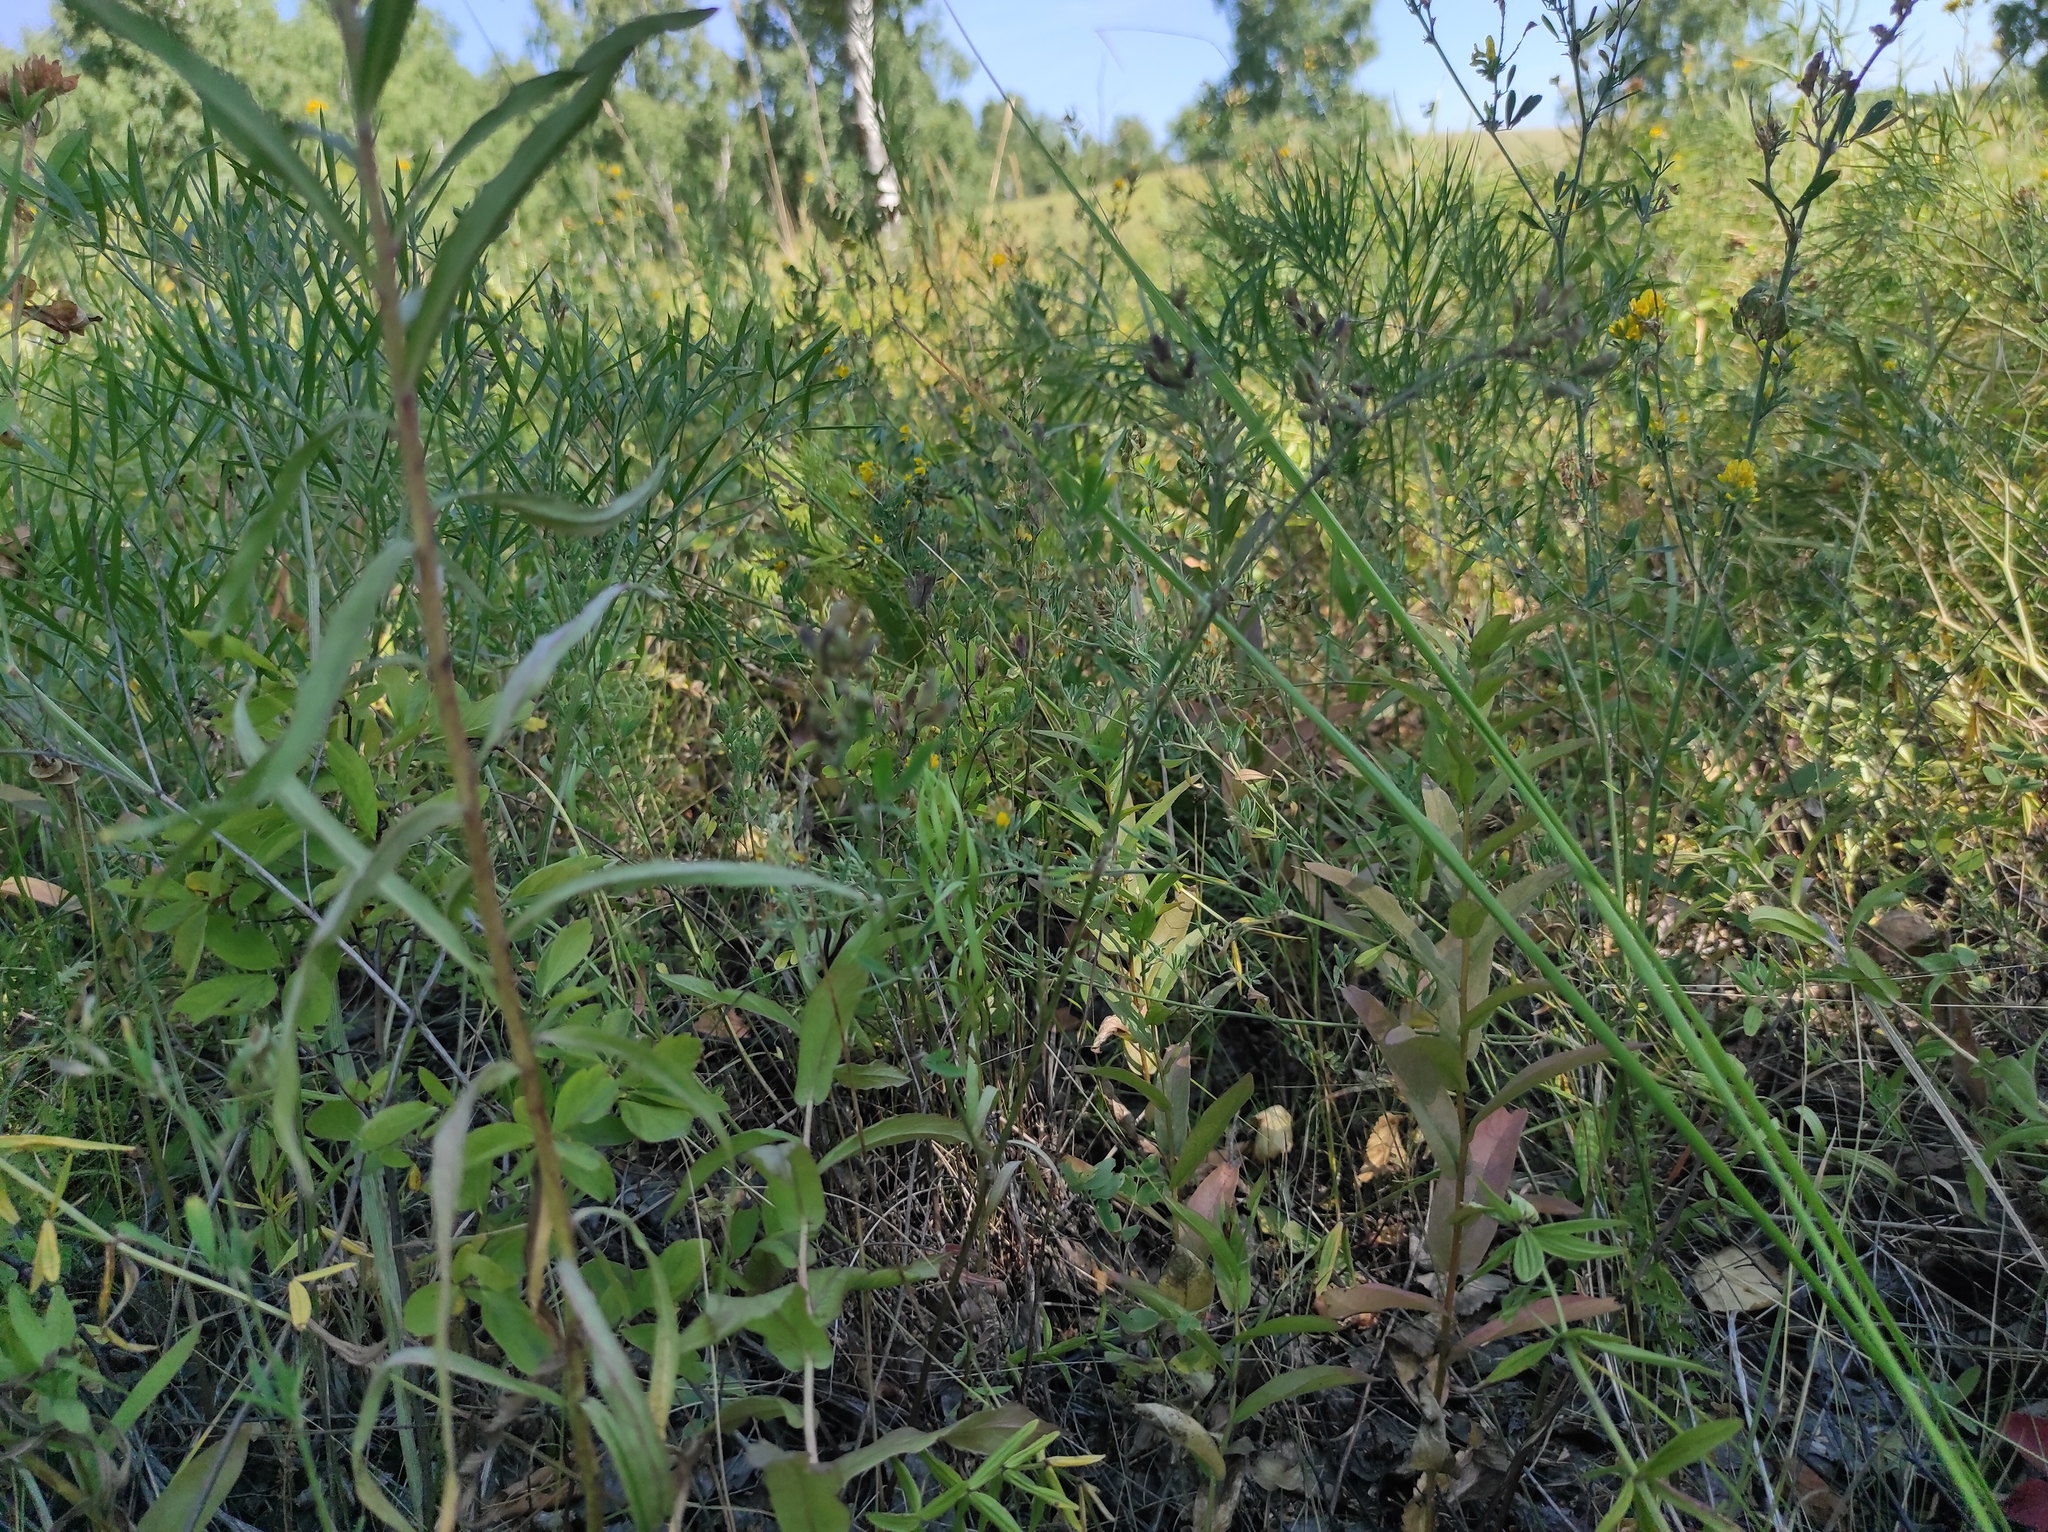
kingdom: Plantae
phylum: Tracheophyta
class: Magnoliopsida
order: Apiales
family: Apiaceae
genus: Peucedanum
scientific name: Peucedanum morisonii
